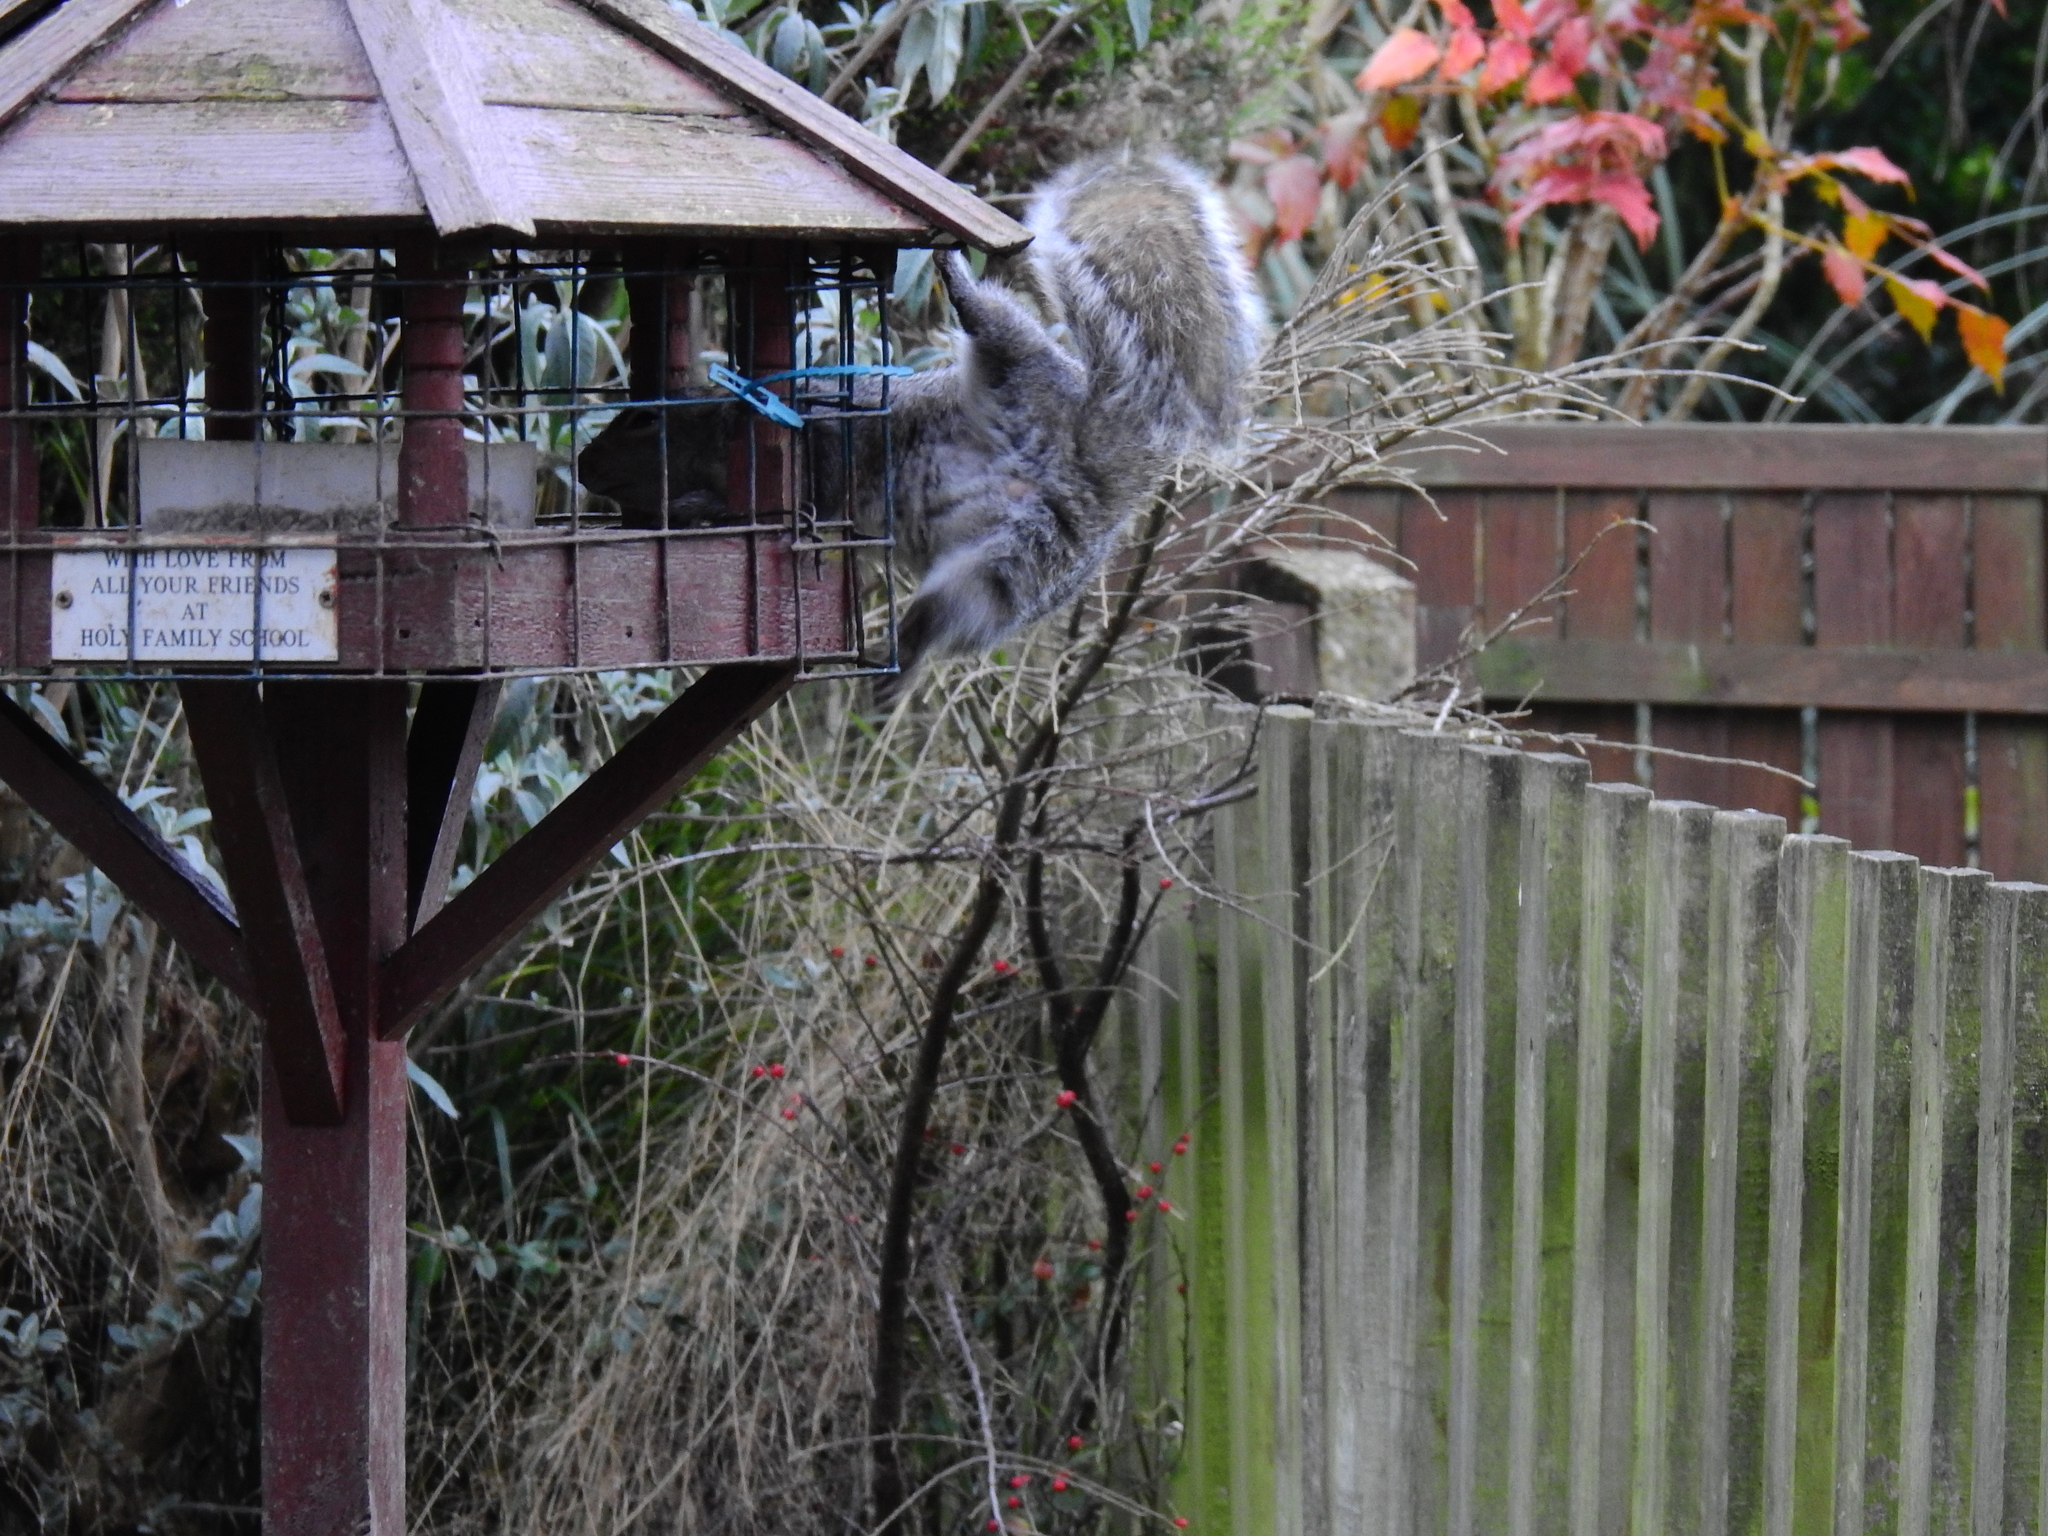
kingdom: Animalia
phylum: Chordata
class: Mammalia
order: Rodentia
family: Sciuridae
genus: Sciurus
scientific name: Sciurus carolinensis
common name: Eastern gray squirrel
